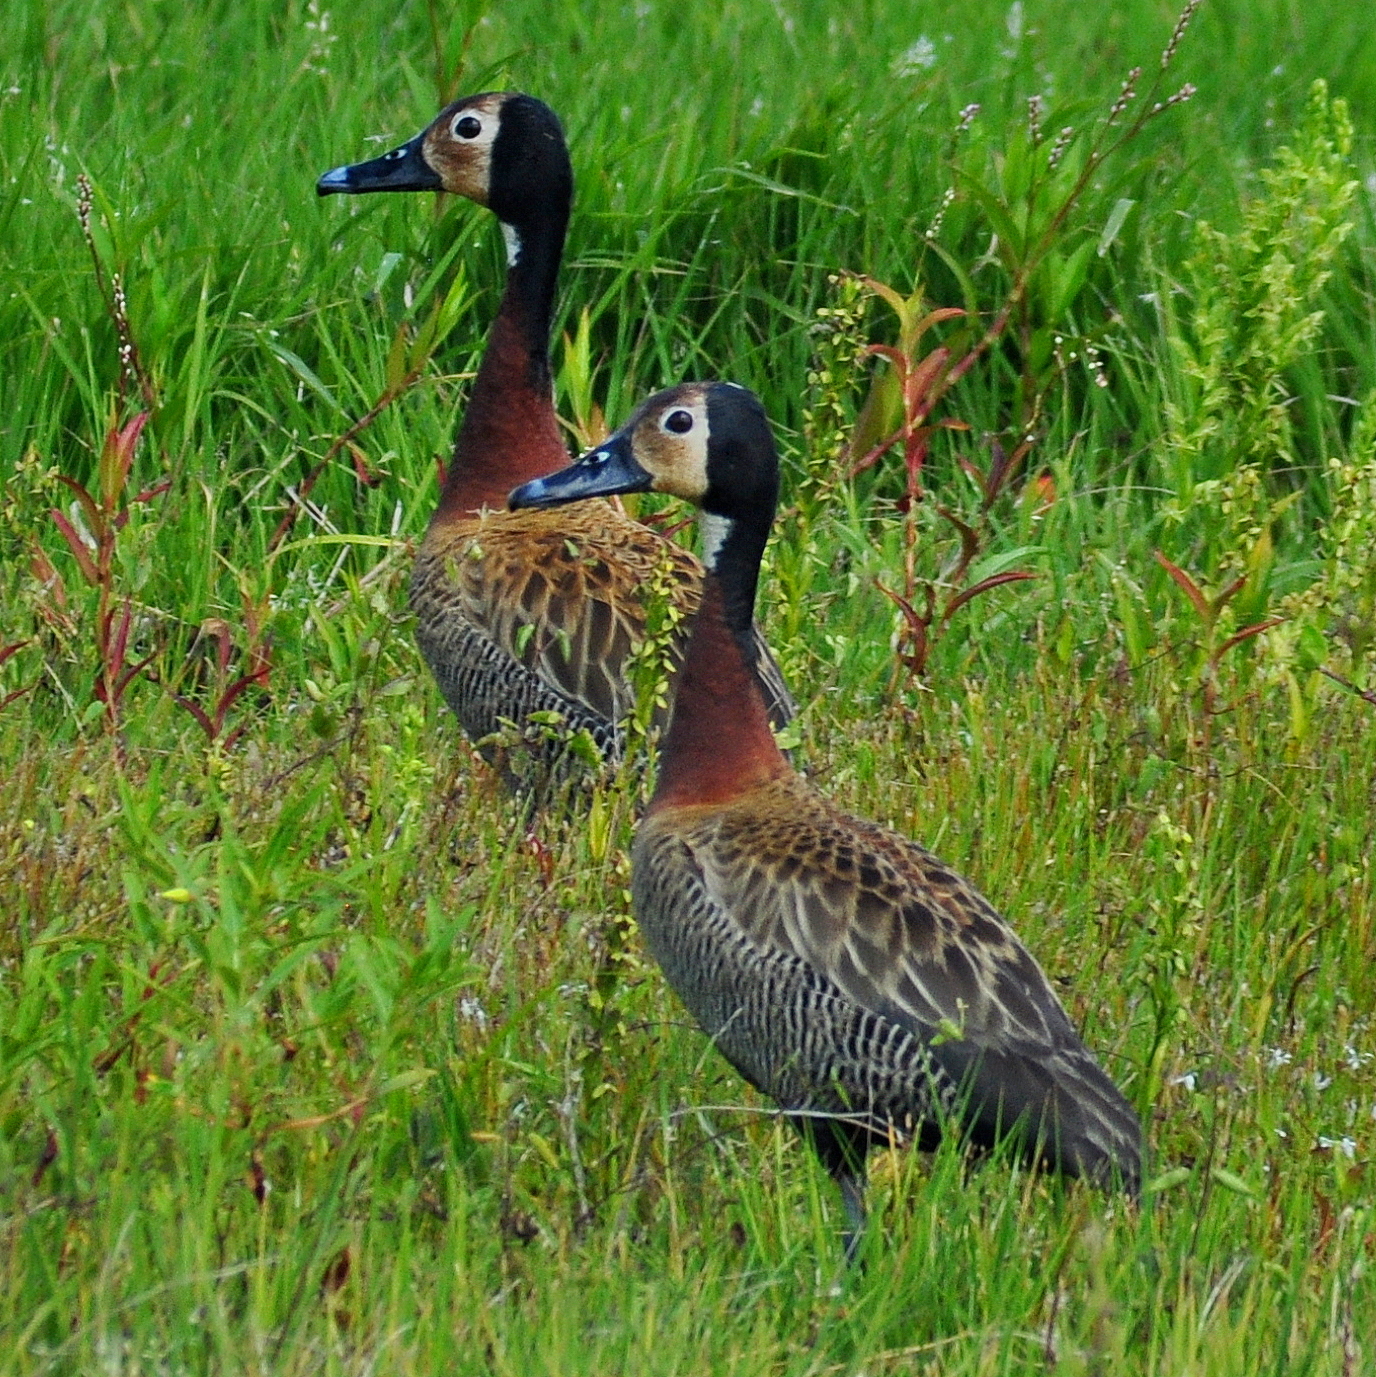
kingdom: Animalia
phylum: Chordata
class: Aves
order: Anseriformes
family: Anatidae
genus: Dendrocygna
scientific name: Dendrocygna viduata
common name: White-faced whistling duck
